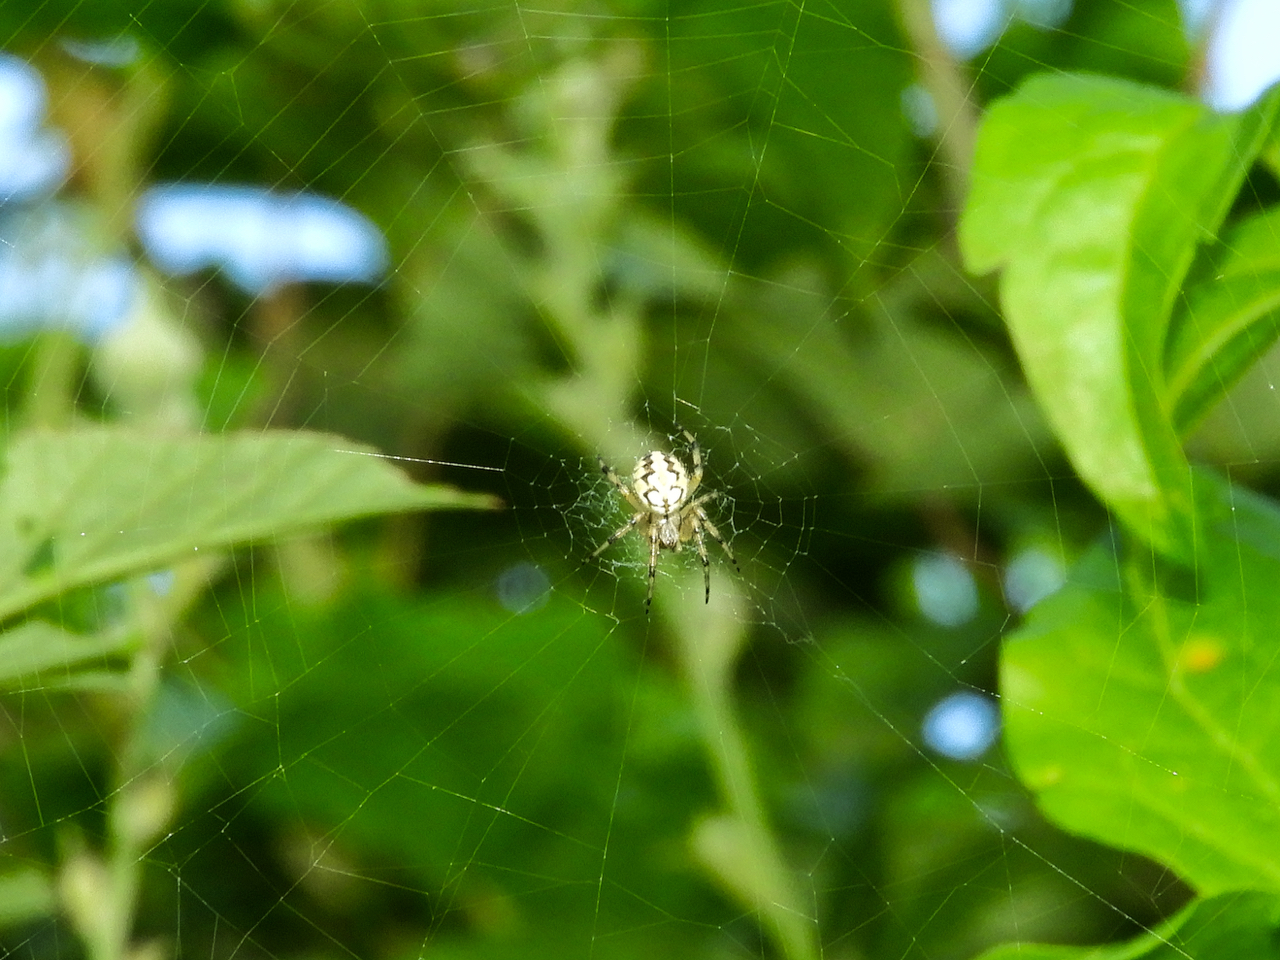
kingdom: Animalia
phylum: Arthropoda
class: Arachnida
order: Araneae
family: Araneidae
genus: Neoscona
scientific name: Neoscona adianta
